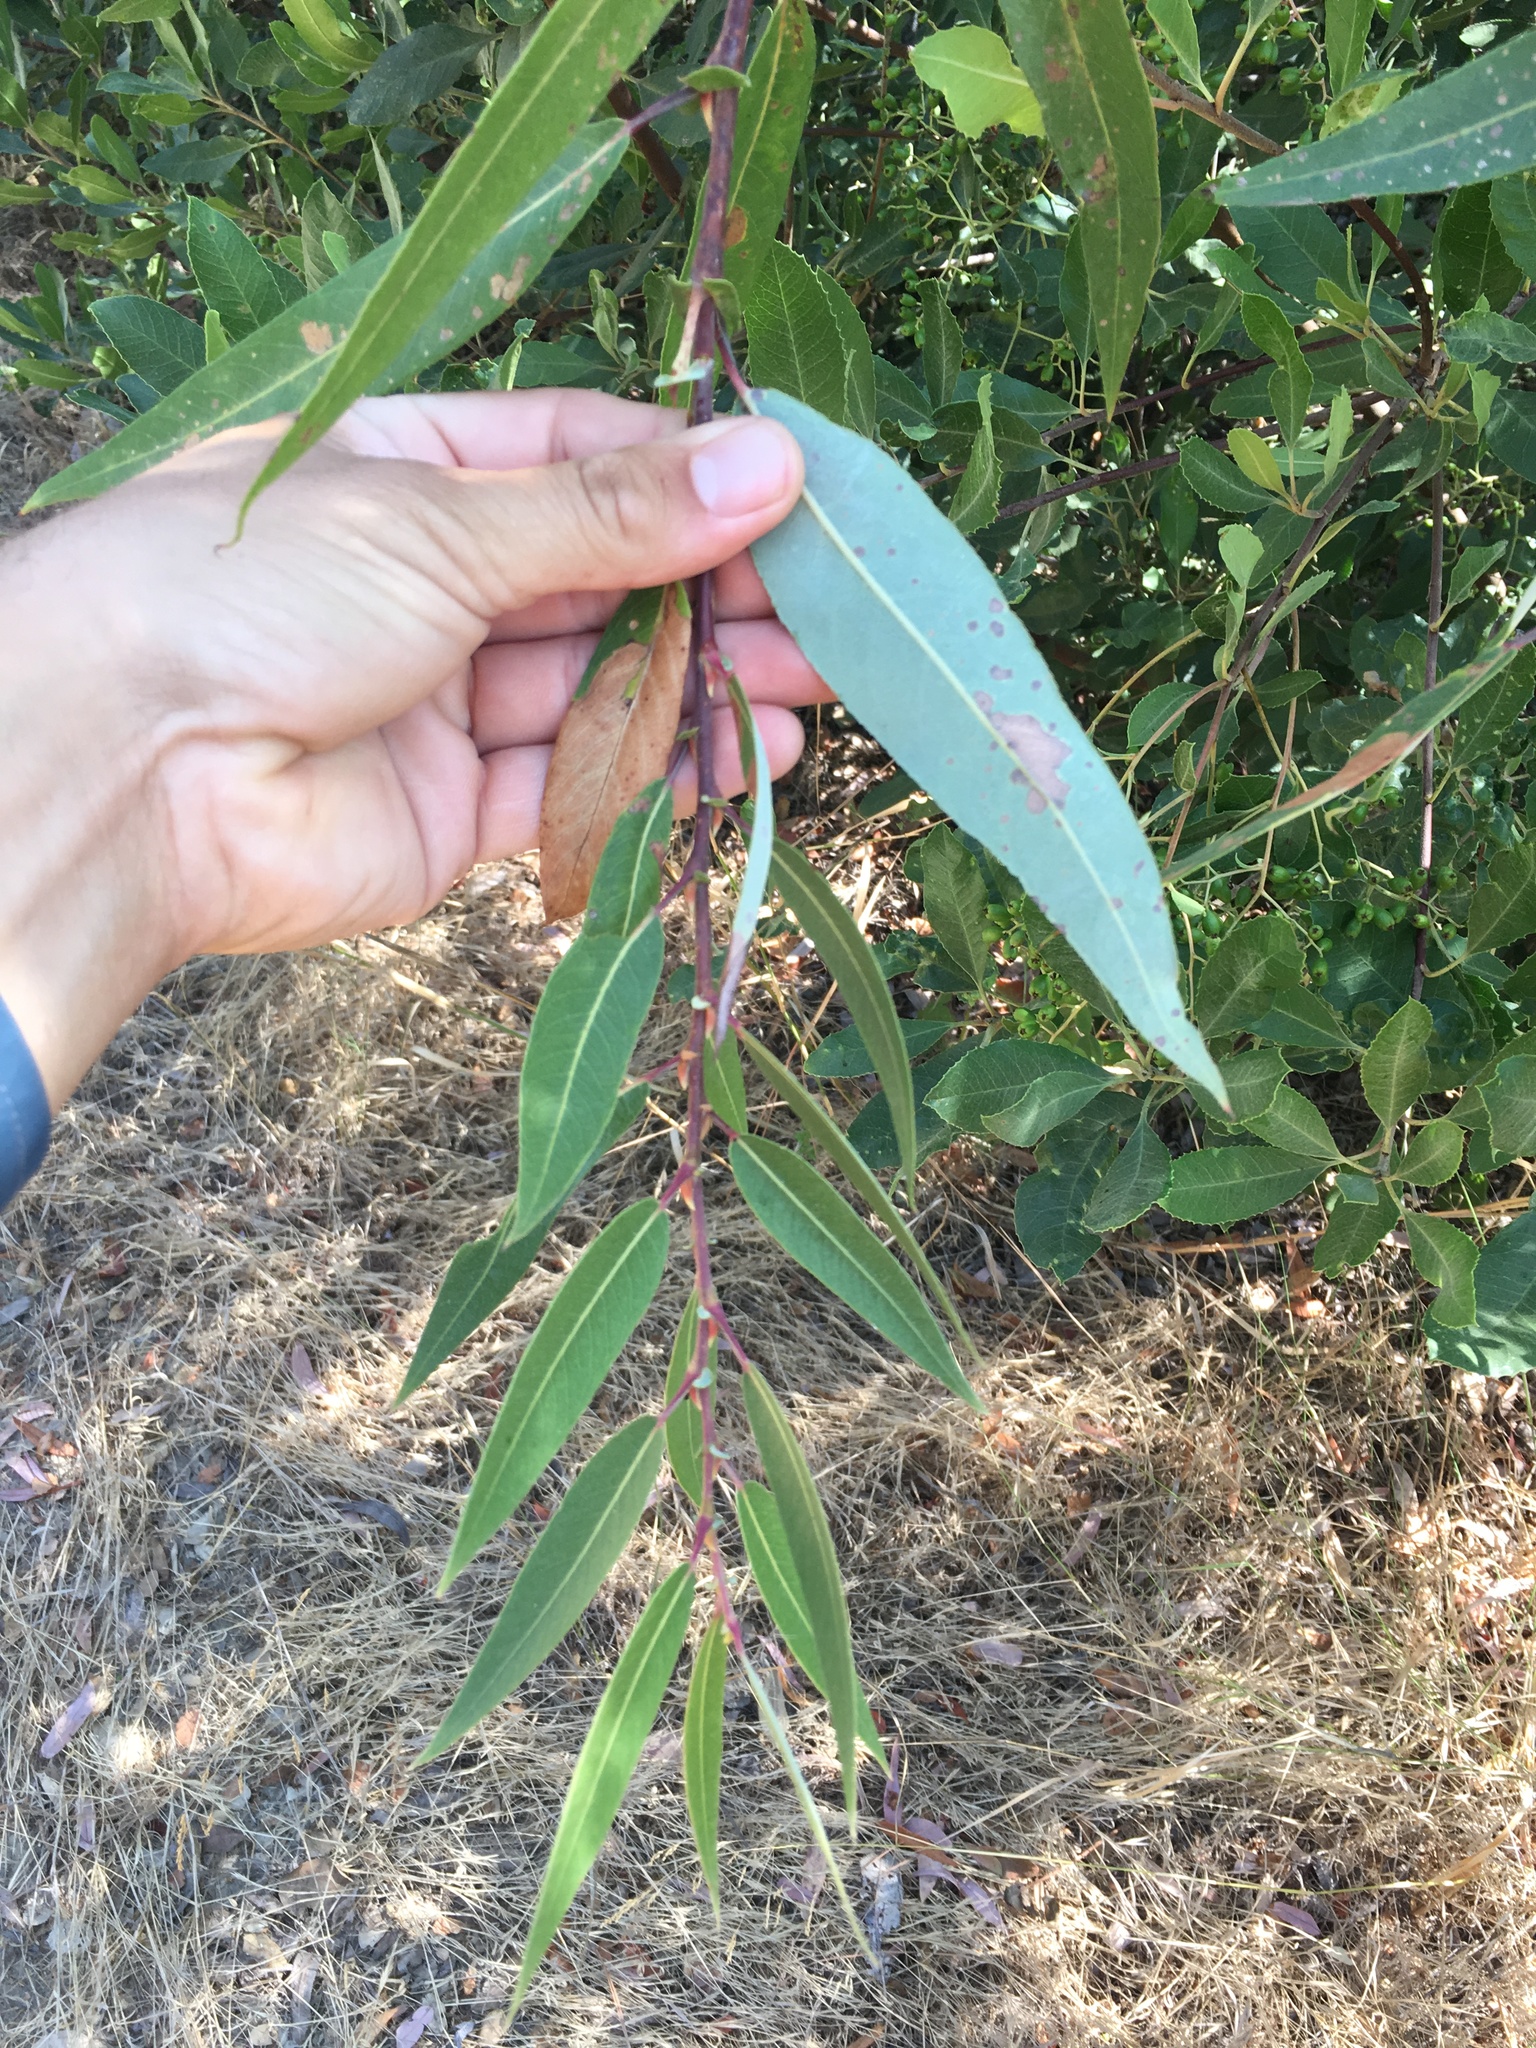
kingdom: Plantae
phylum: Tracheophyta
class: Magnoliopsida
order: Malpighiales
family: Salicaceae
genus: Salix
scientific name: Salix laevigata
